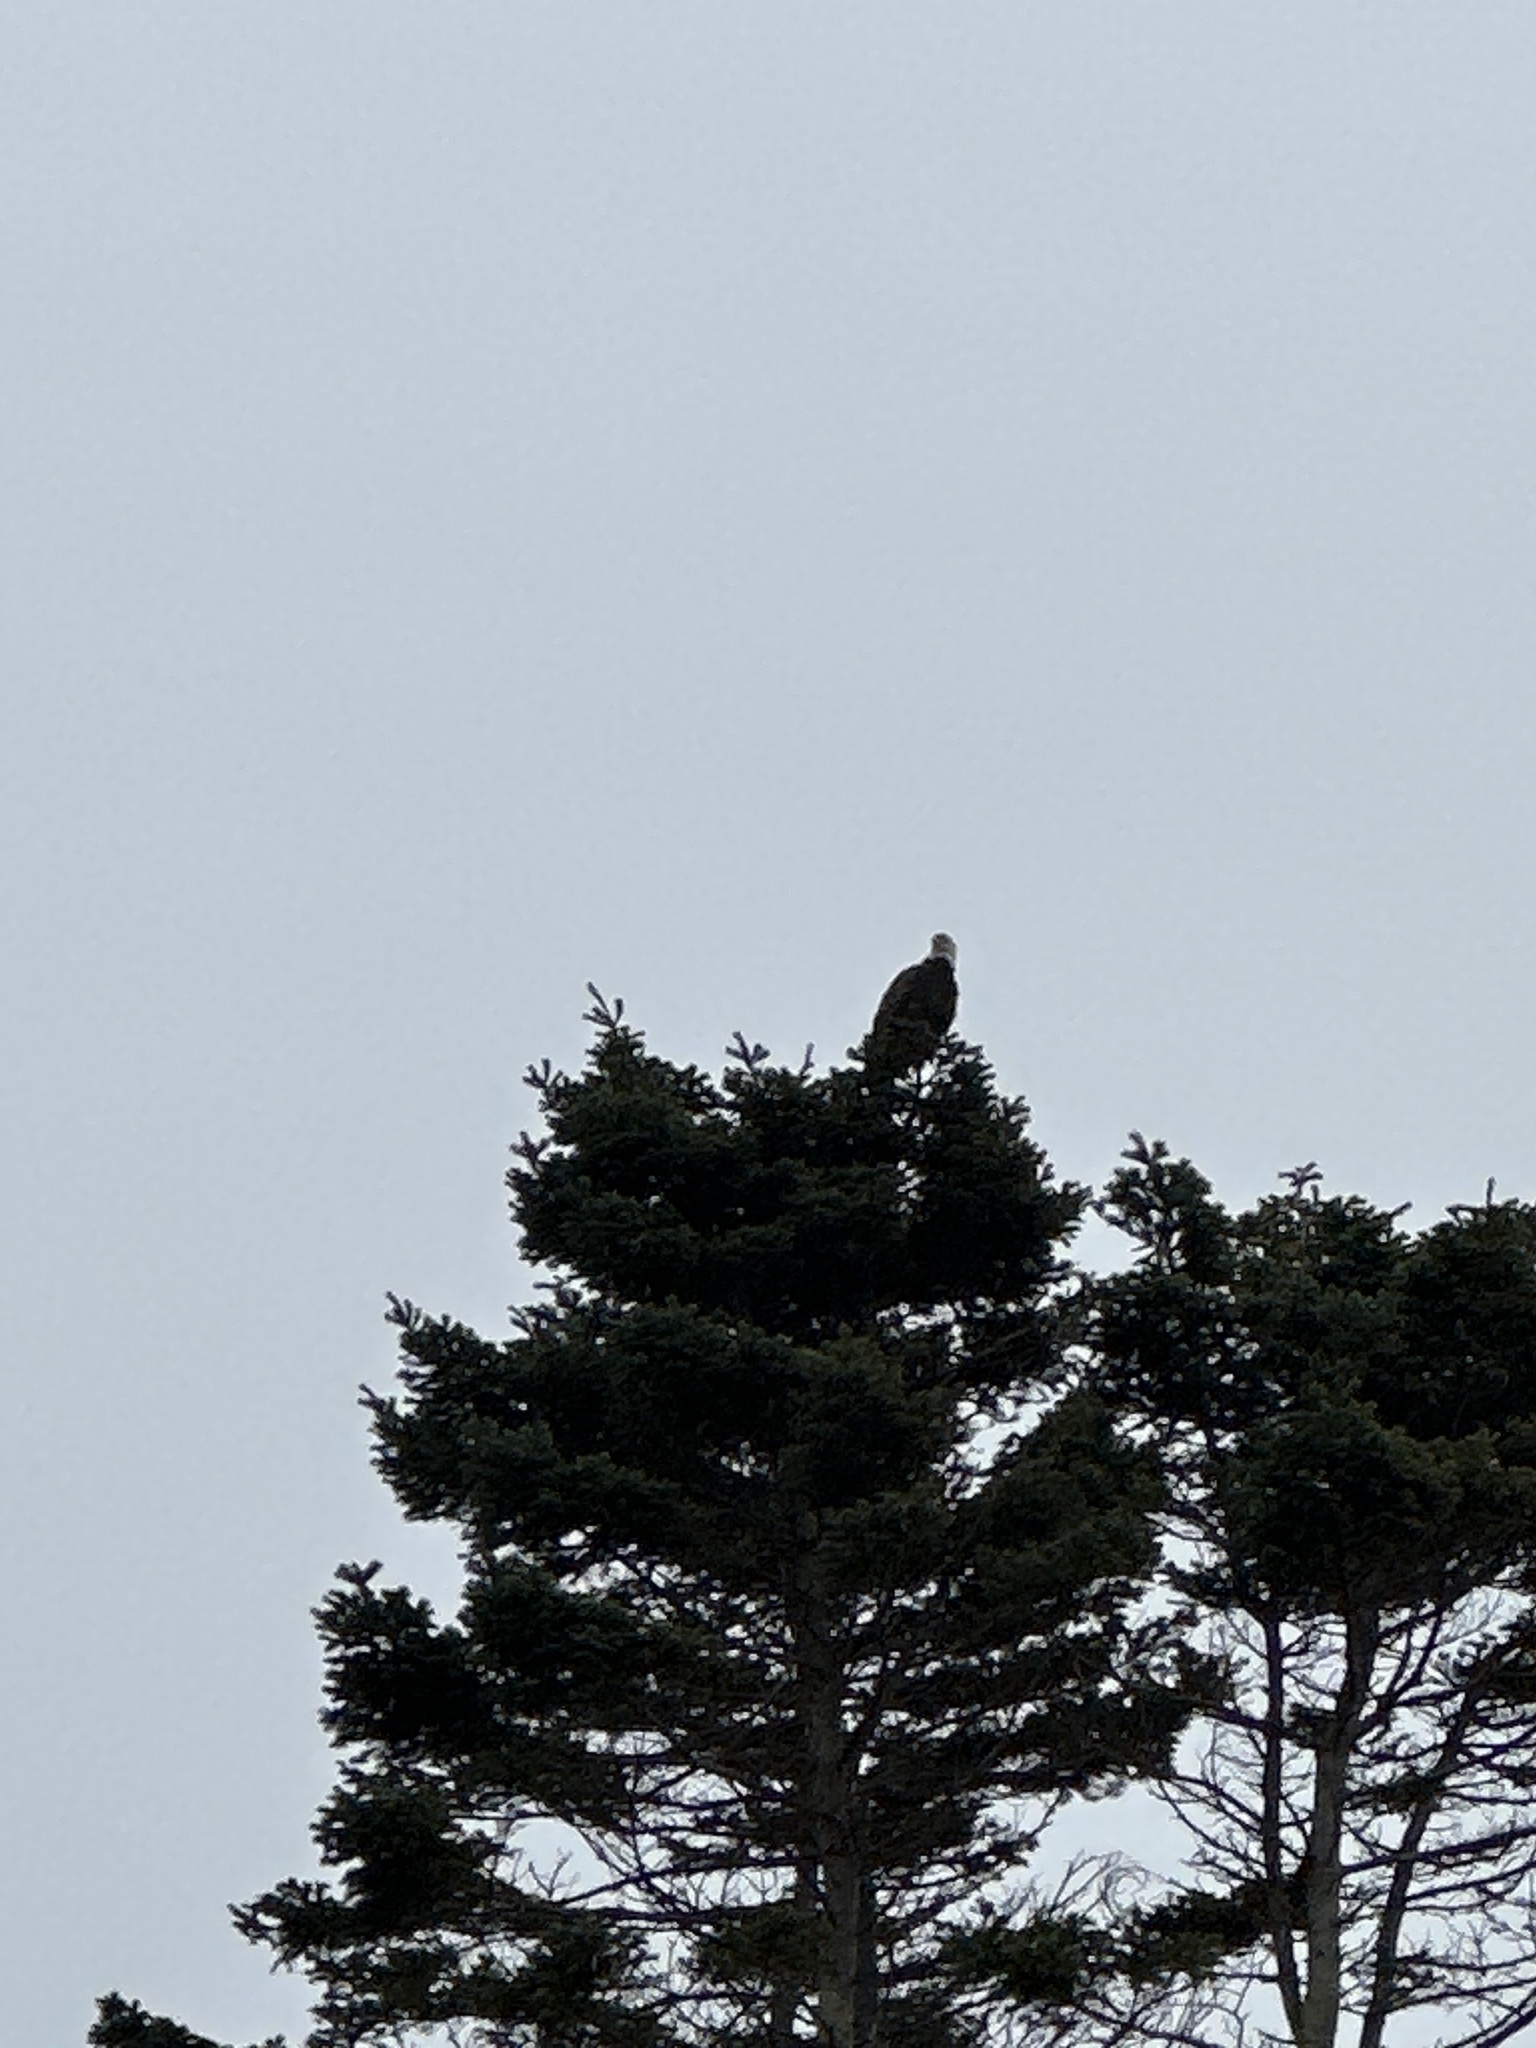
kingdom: Animalia
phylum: Chordata
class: Aves
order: Accipitriformes
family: Accipitridae
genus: Haliaeetus
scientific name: Haliaeetus leucocephalus
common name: Bald eagle
